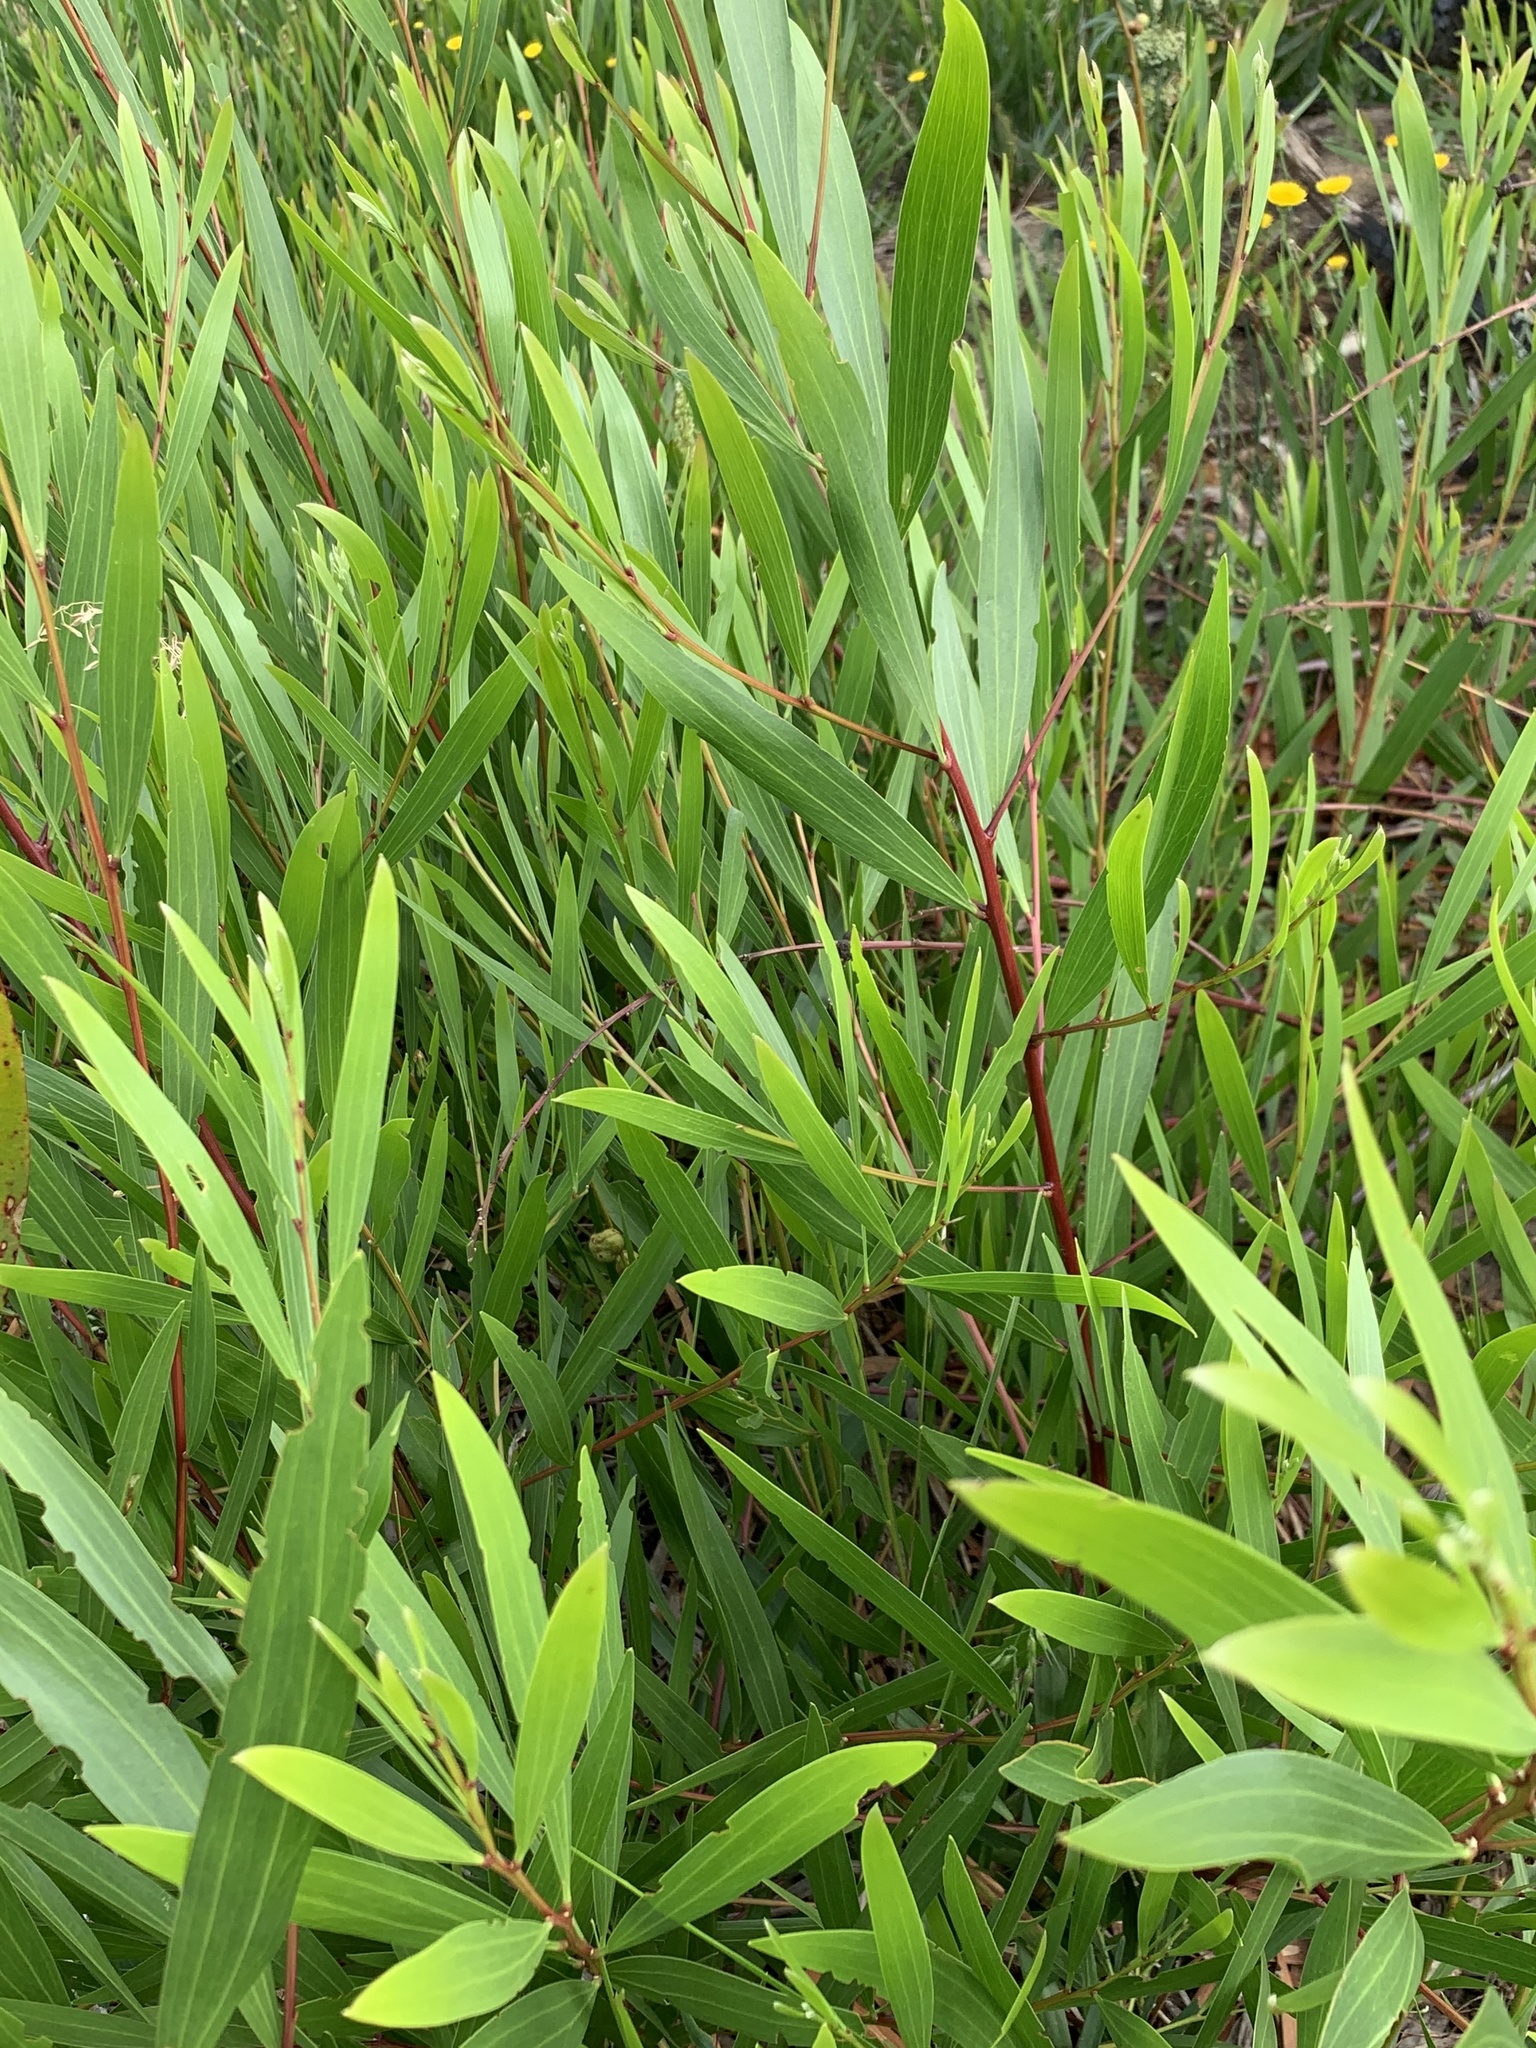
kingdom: Plantae
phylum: Tracheophyta
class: Magnoliopsida
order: Fabales
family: Fabaceae
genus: Acacia
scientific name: Acacia longifolia
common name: Sydney golden wattle
